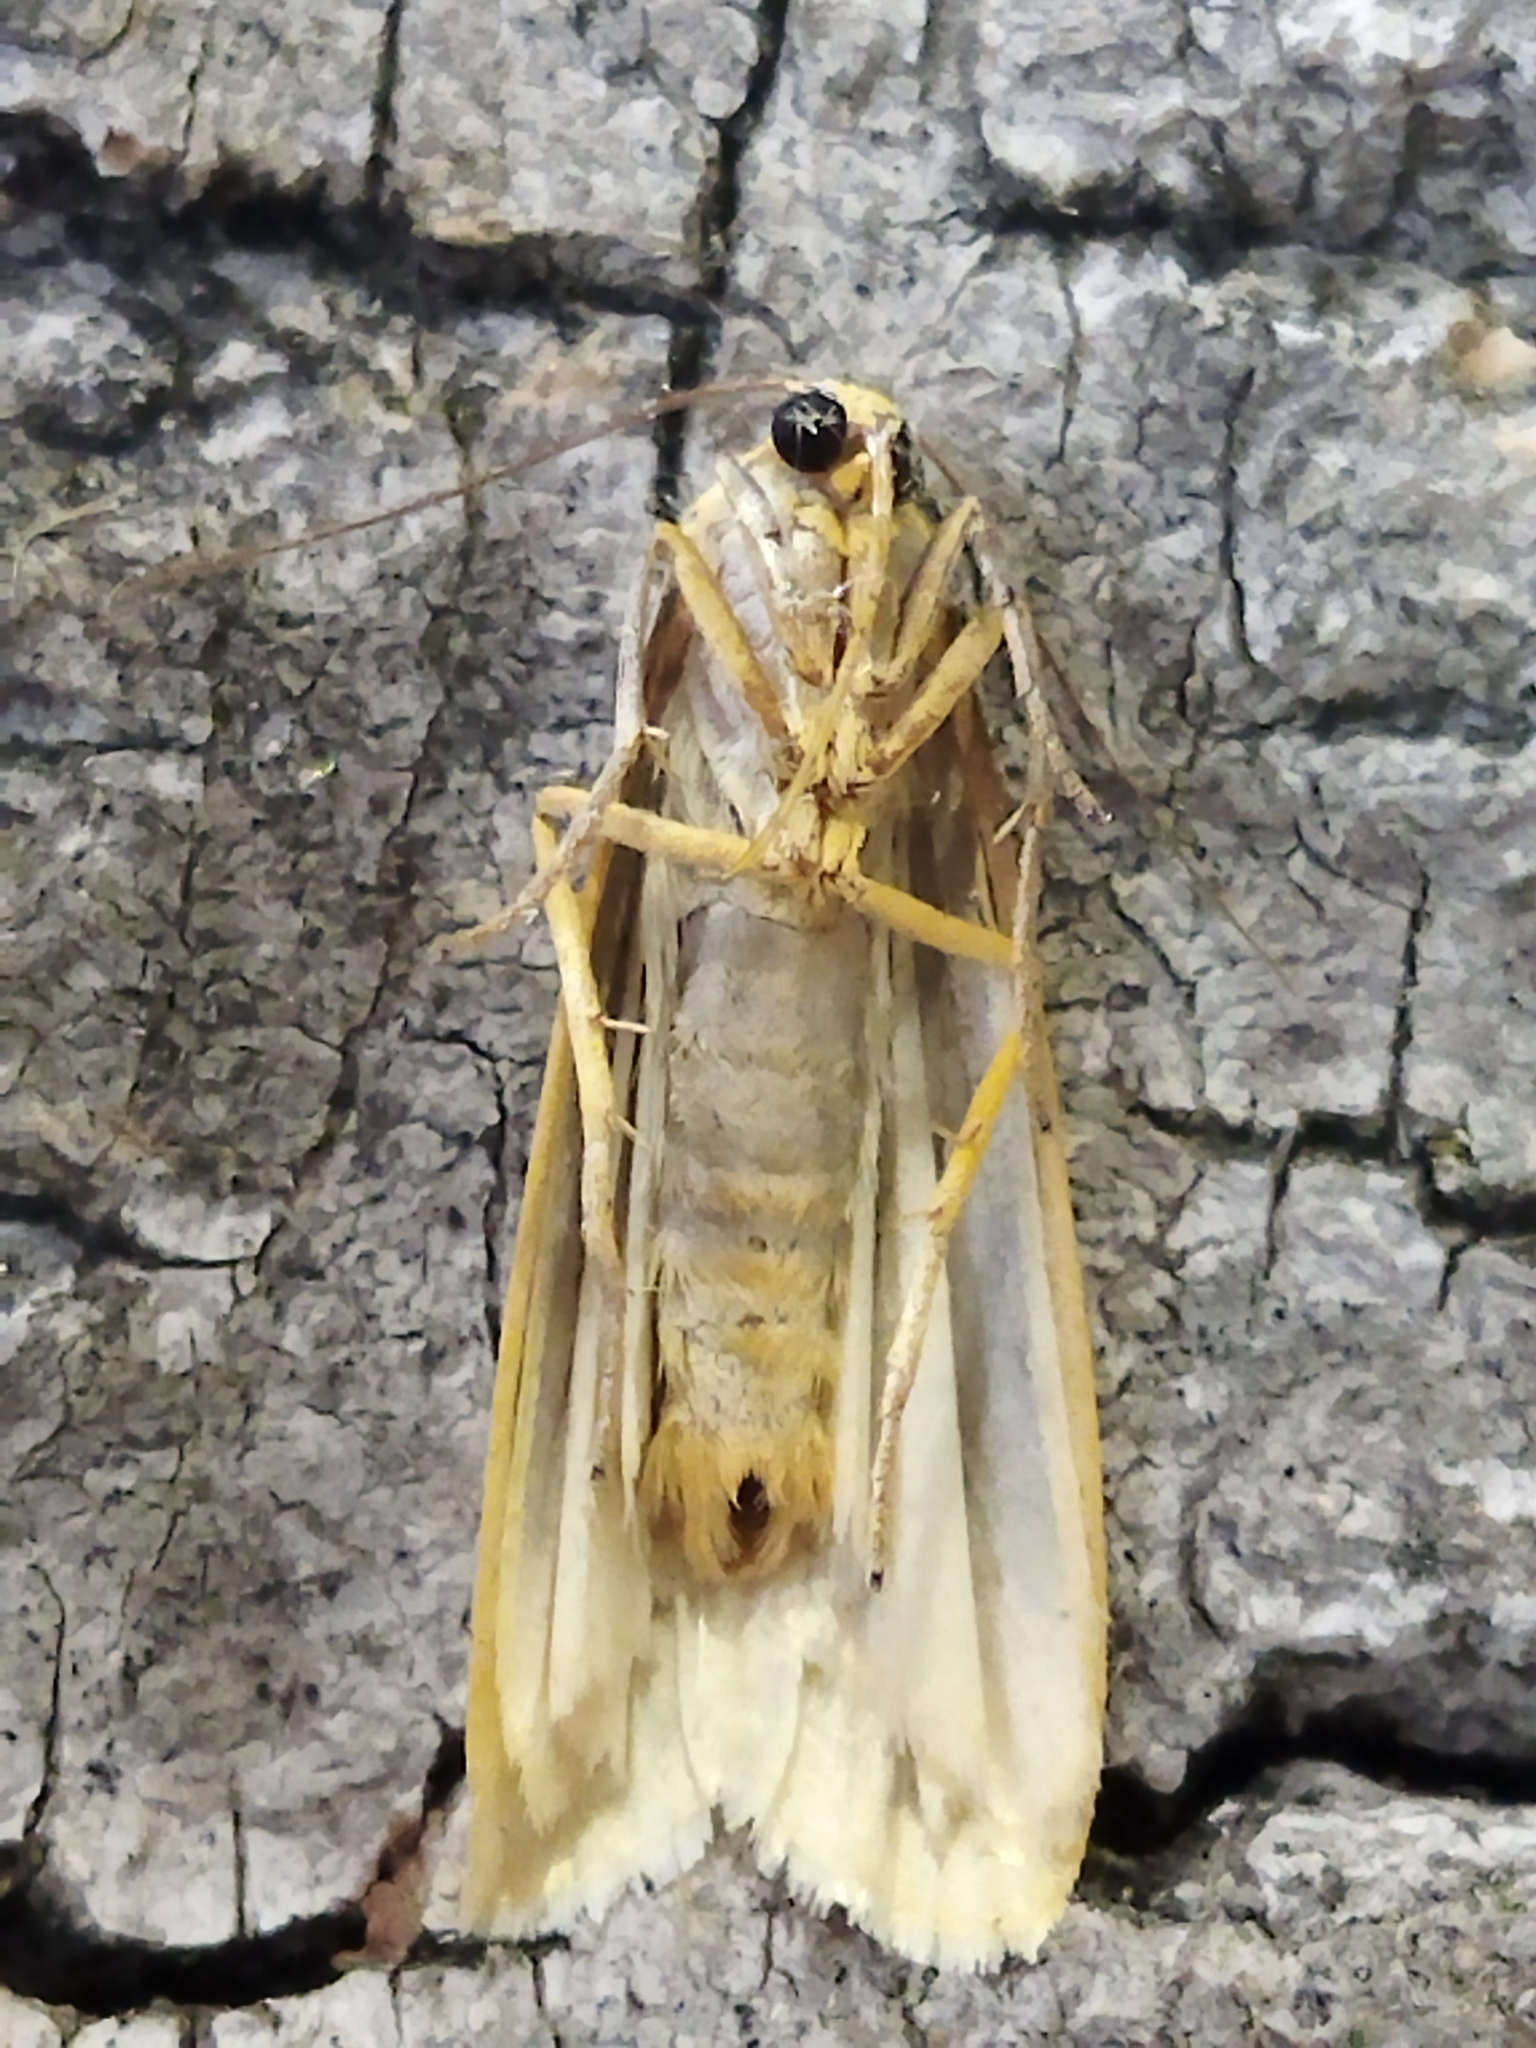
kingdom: Animalia
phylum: Arthropoda
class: Insecta
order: Lepidoptera
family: Erebidae
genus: Eilema
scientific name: Eilema caniola
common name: Hoary footman
